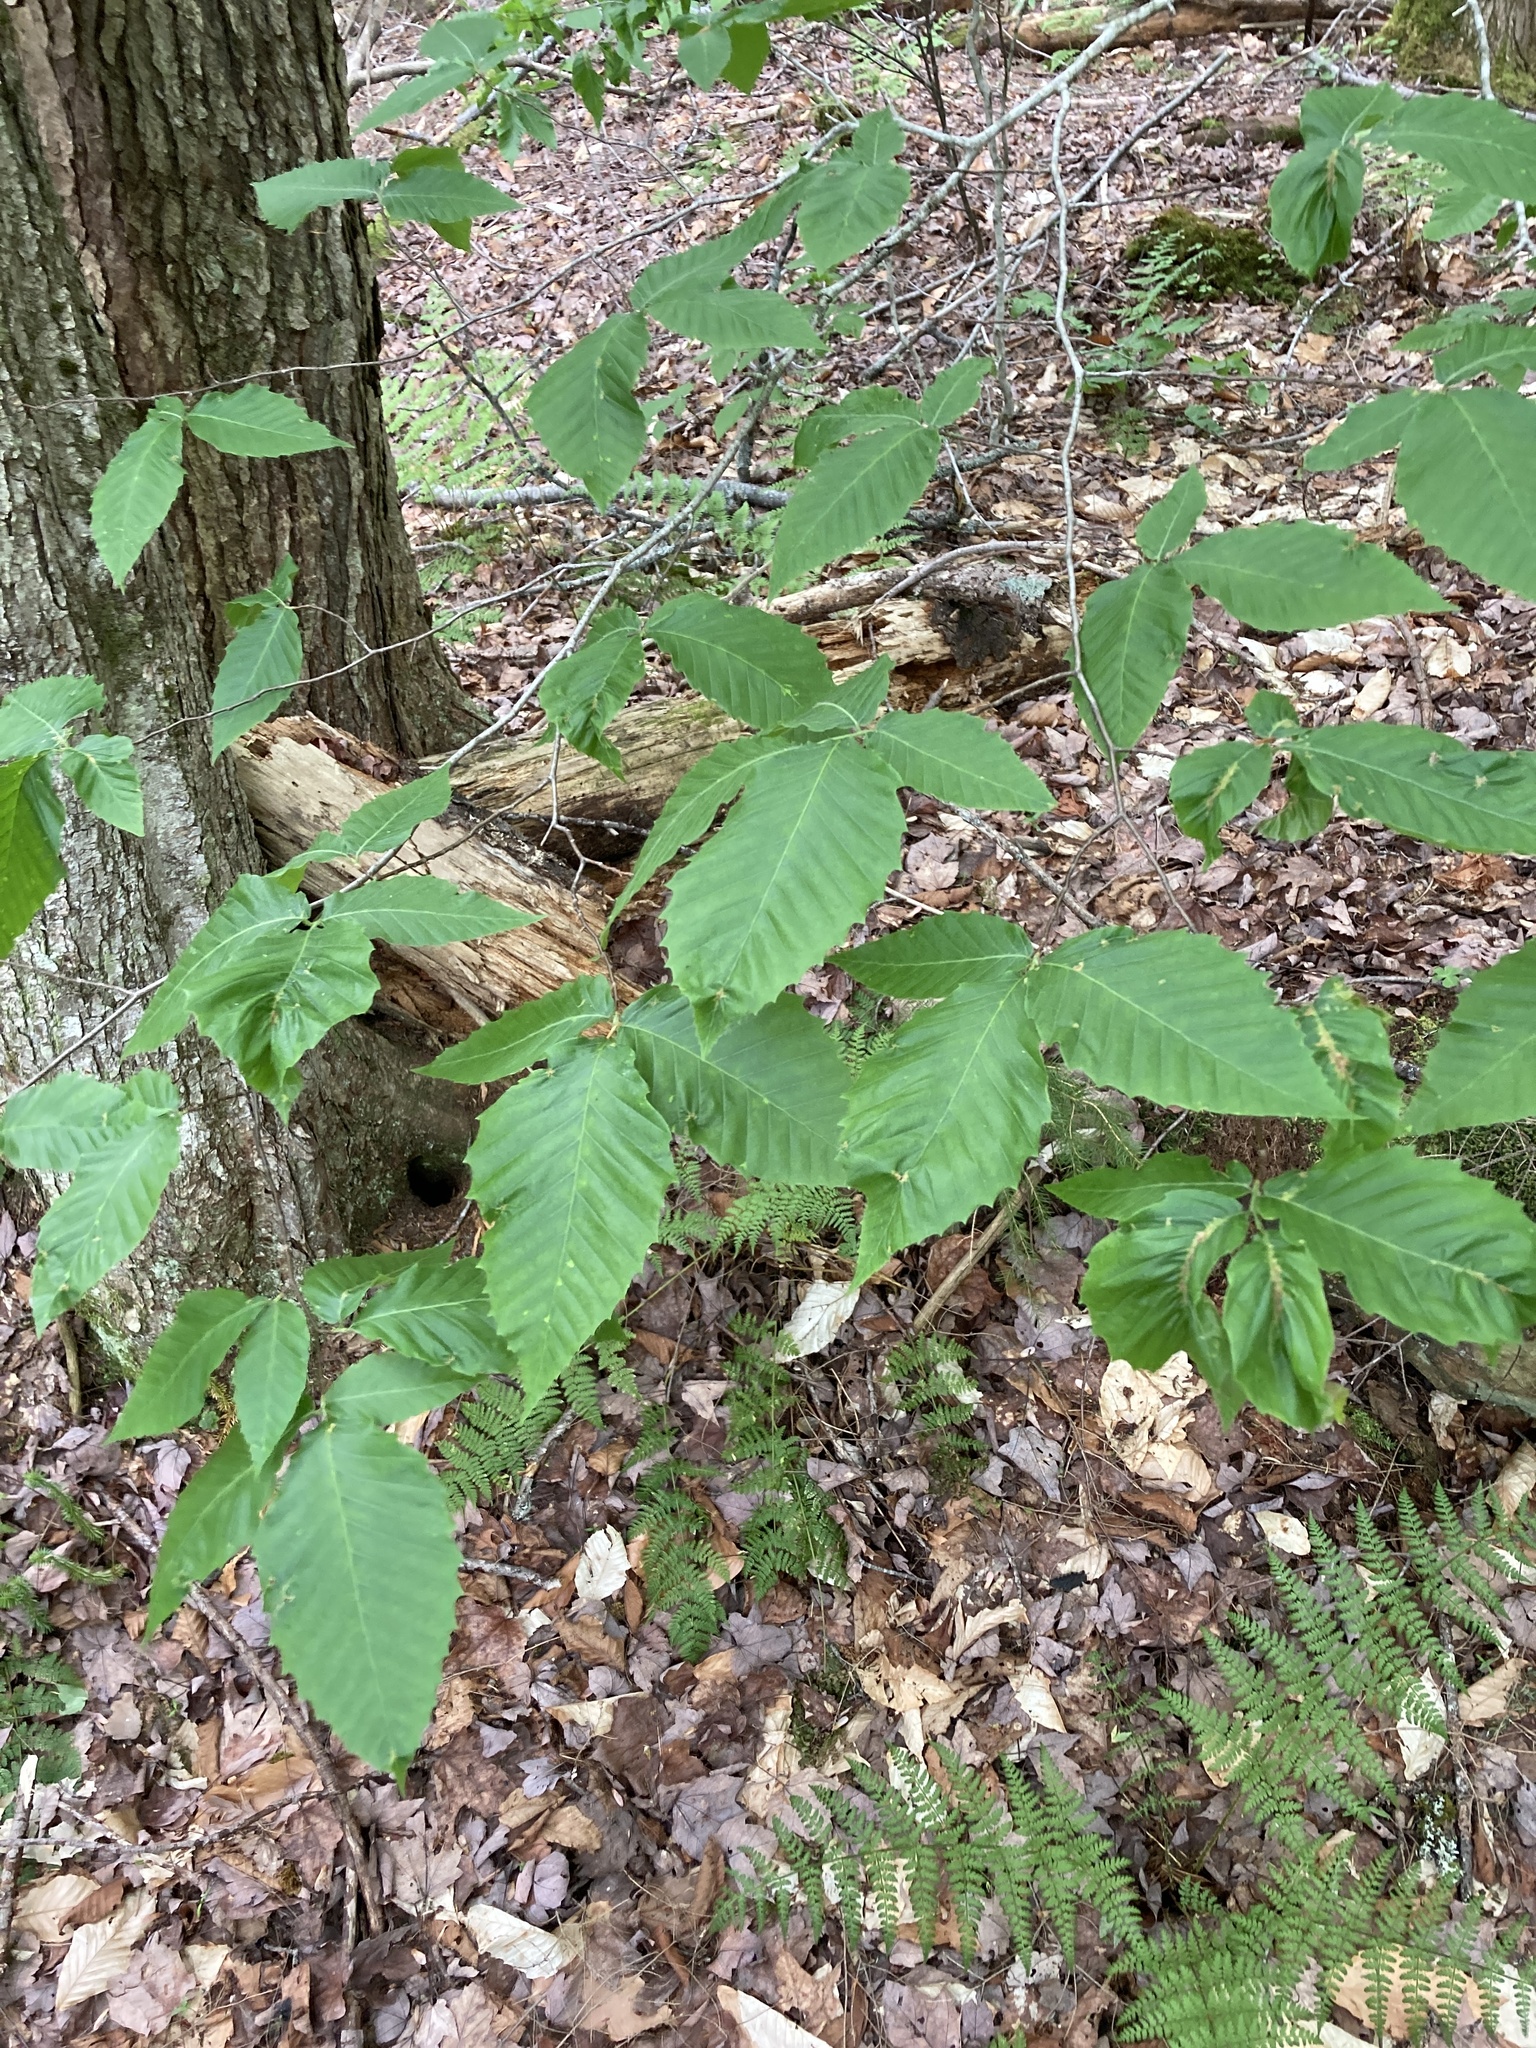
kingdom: Plantae
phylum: Tracheophyta
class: Magnoliopsida
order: Fagales
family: Fagaceae
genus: Fagus
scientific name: Fagus grandifolia
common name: American beech
